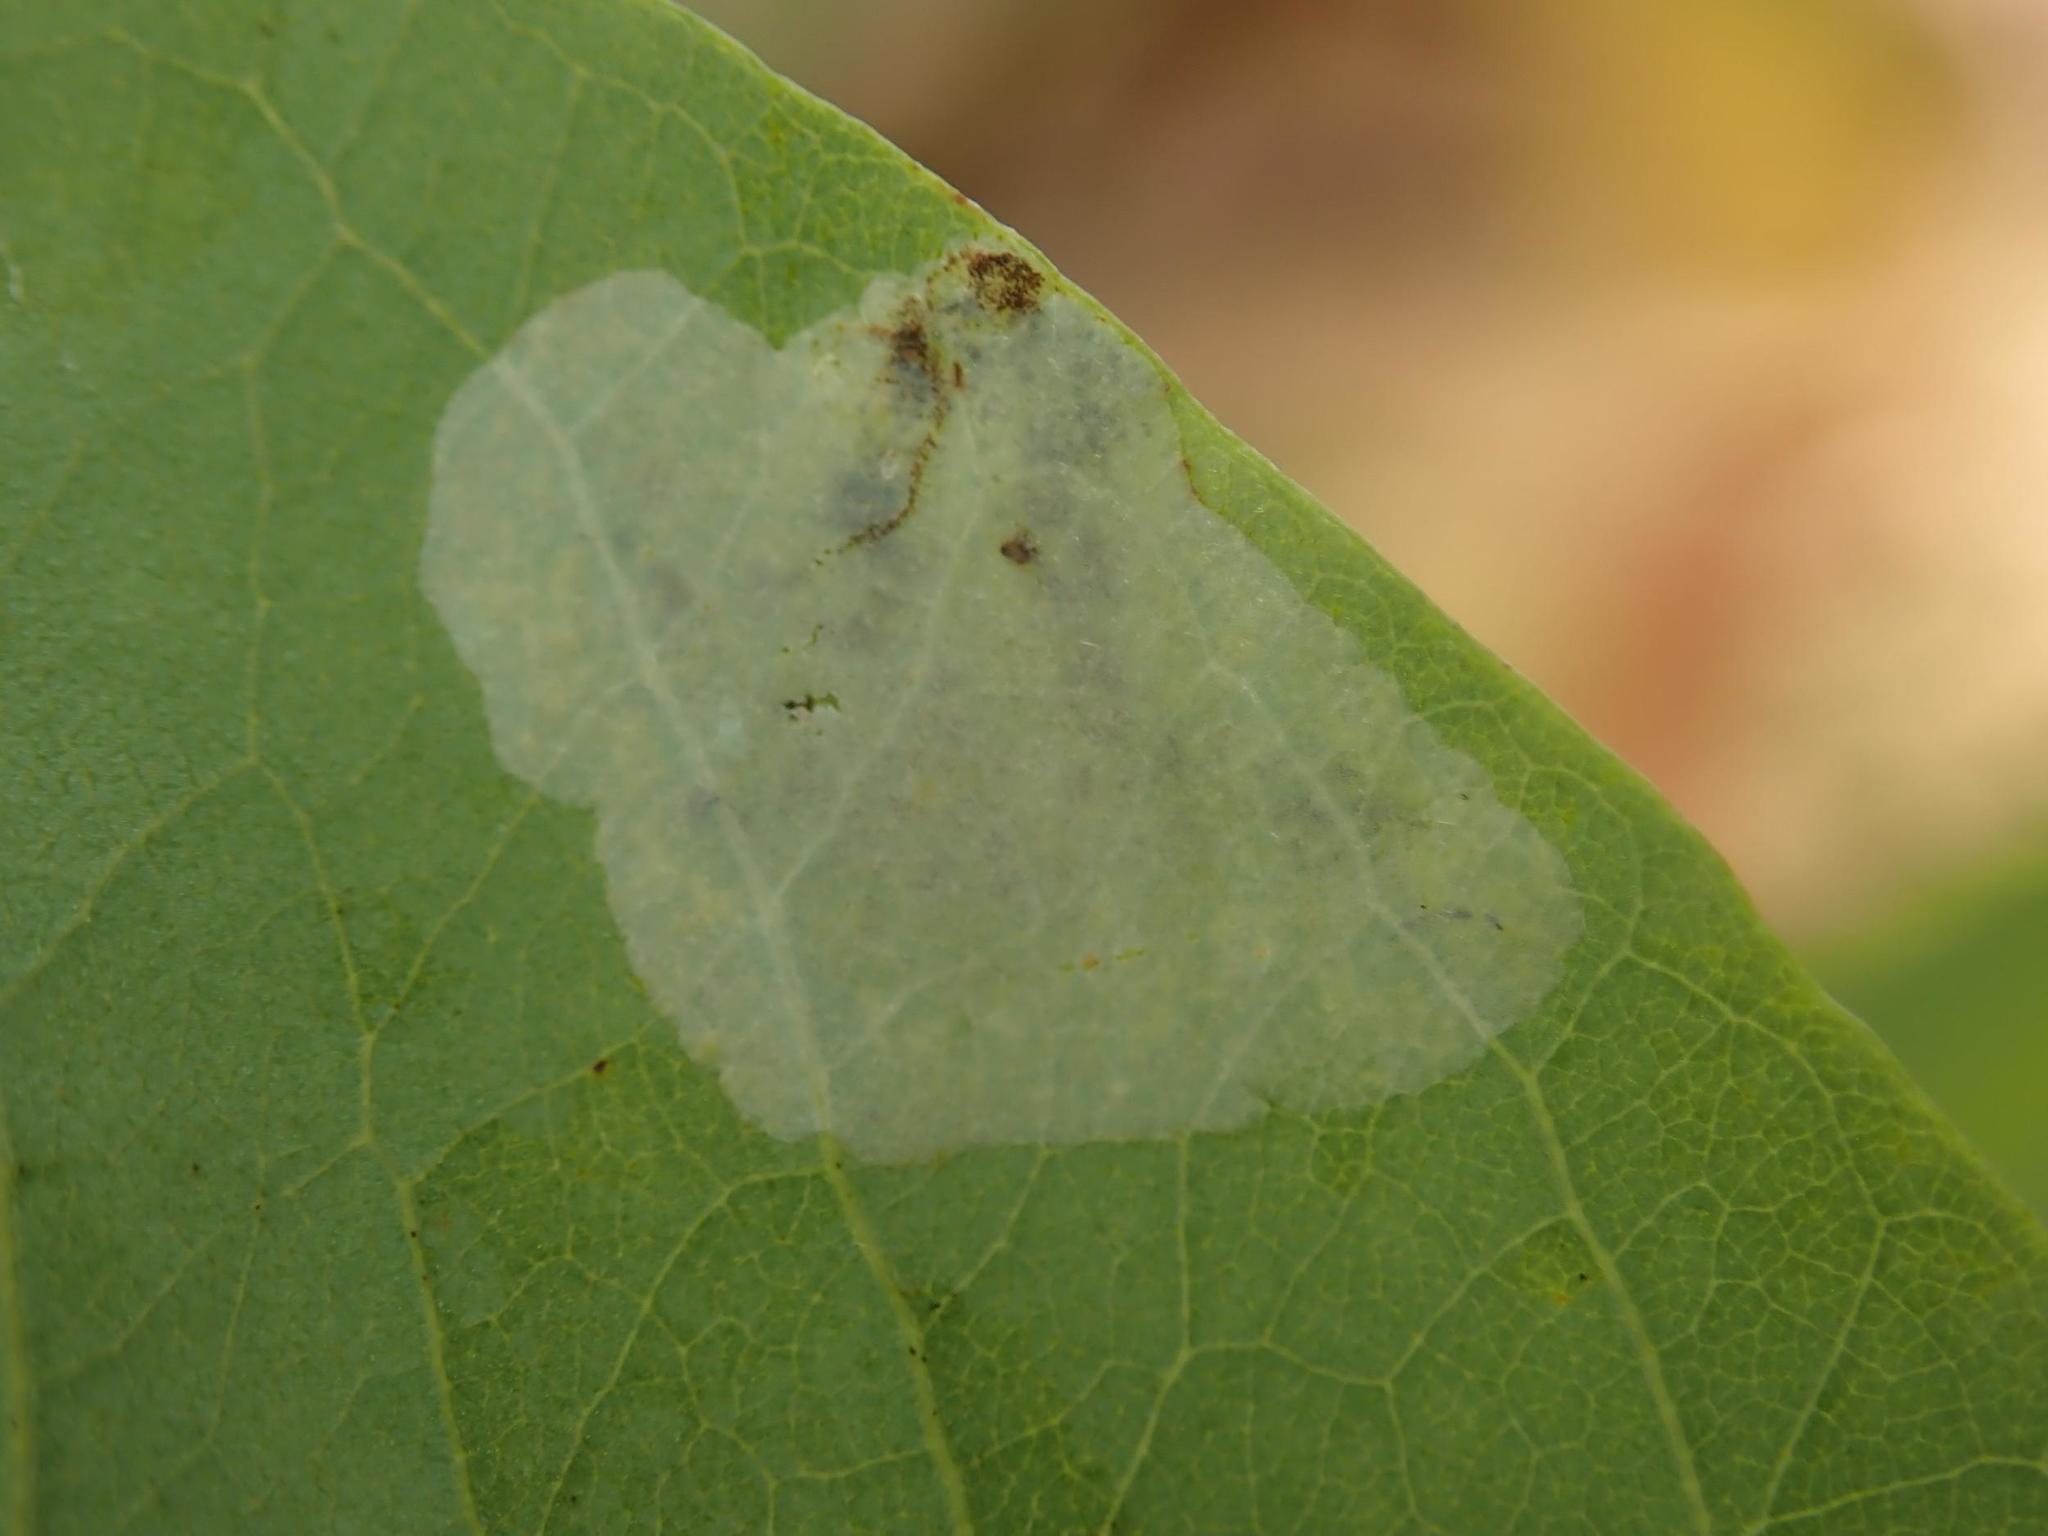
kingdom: Animalia
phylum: Arthropoda
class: Insecta
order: Lepidoptera
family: Gracillariidae
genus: Macrosaccus
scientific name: Macrosaccus robiniella
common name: Leaf blotch miner moth
